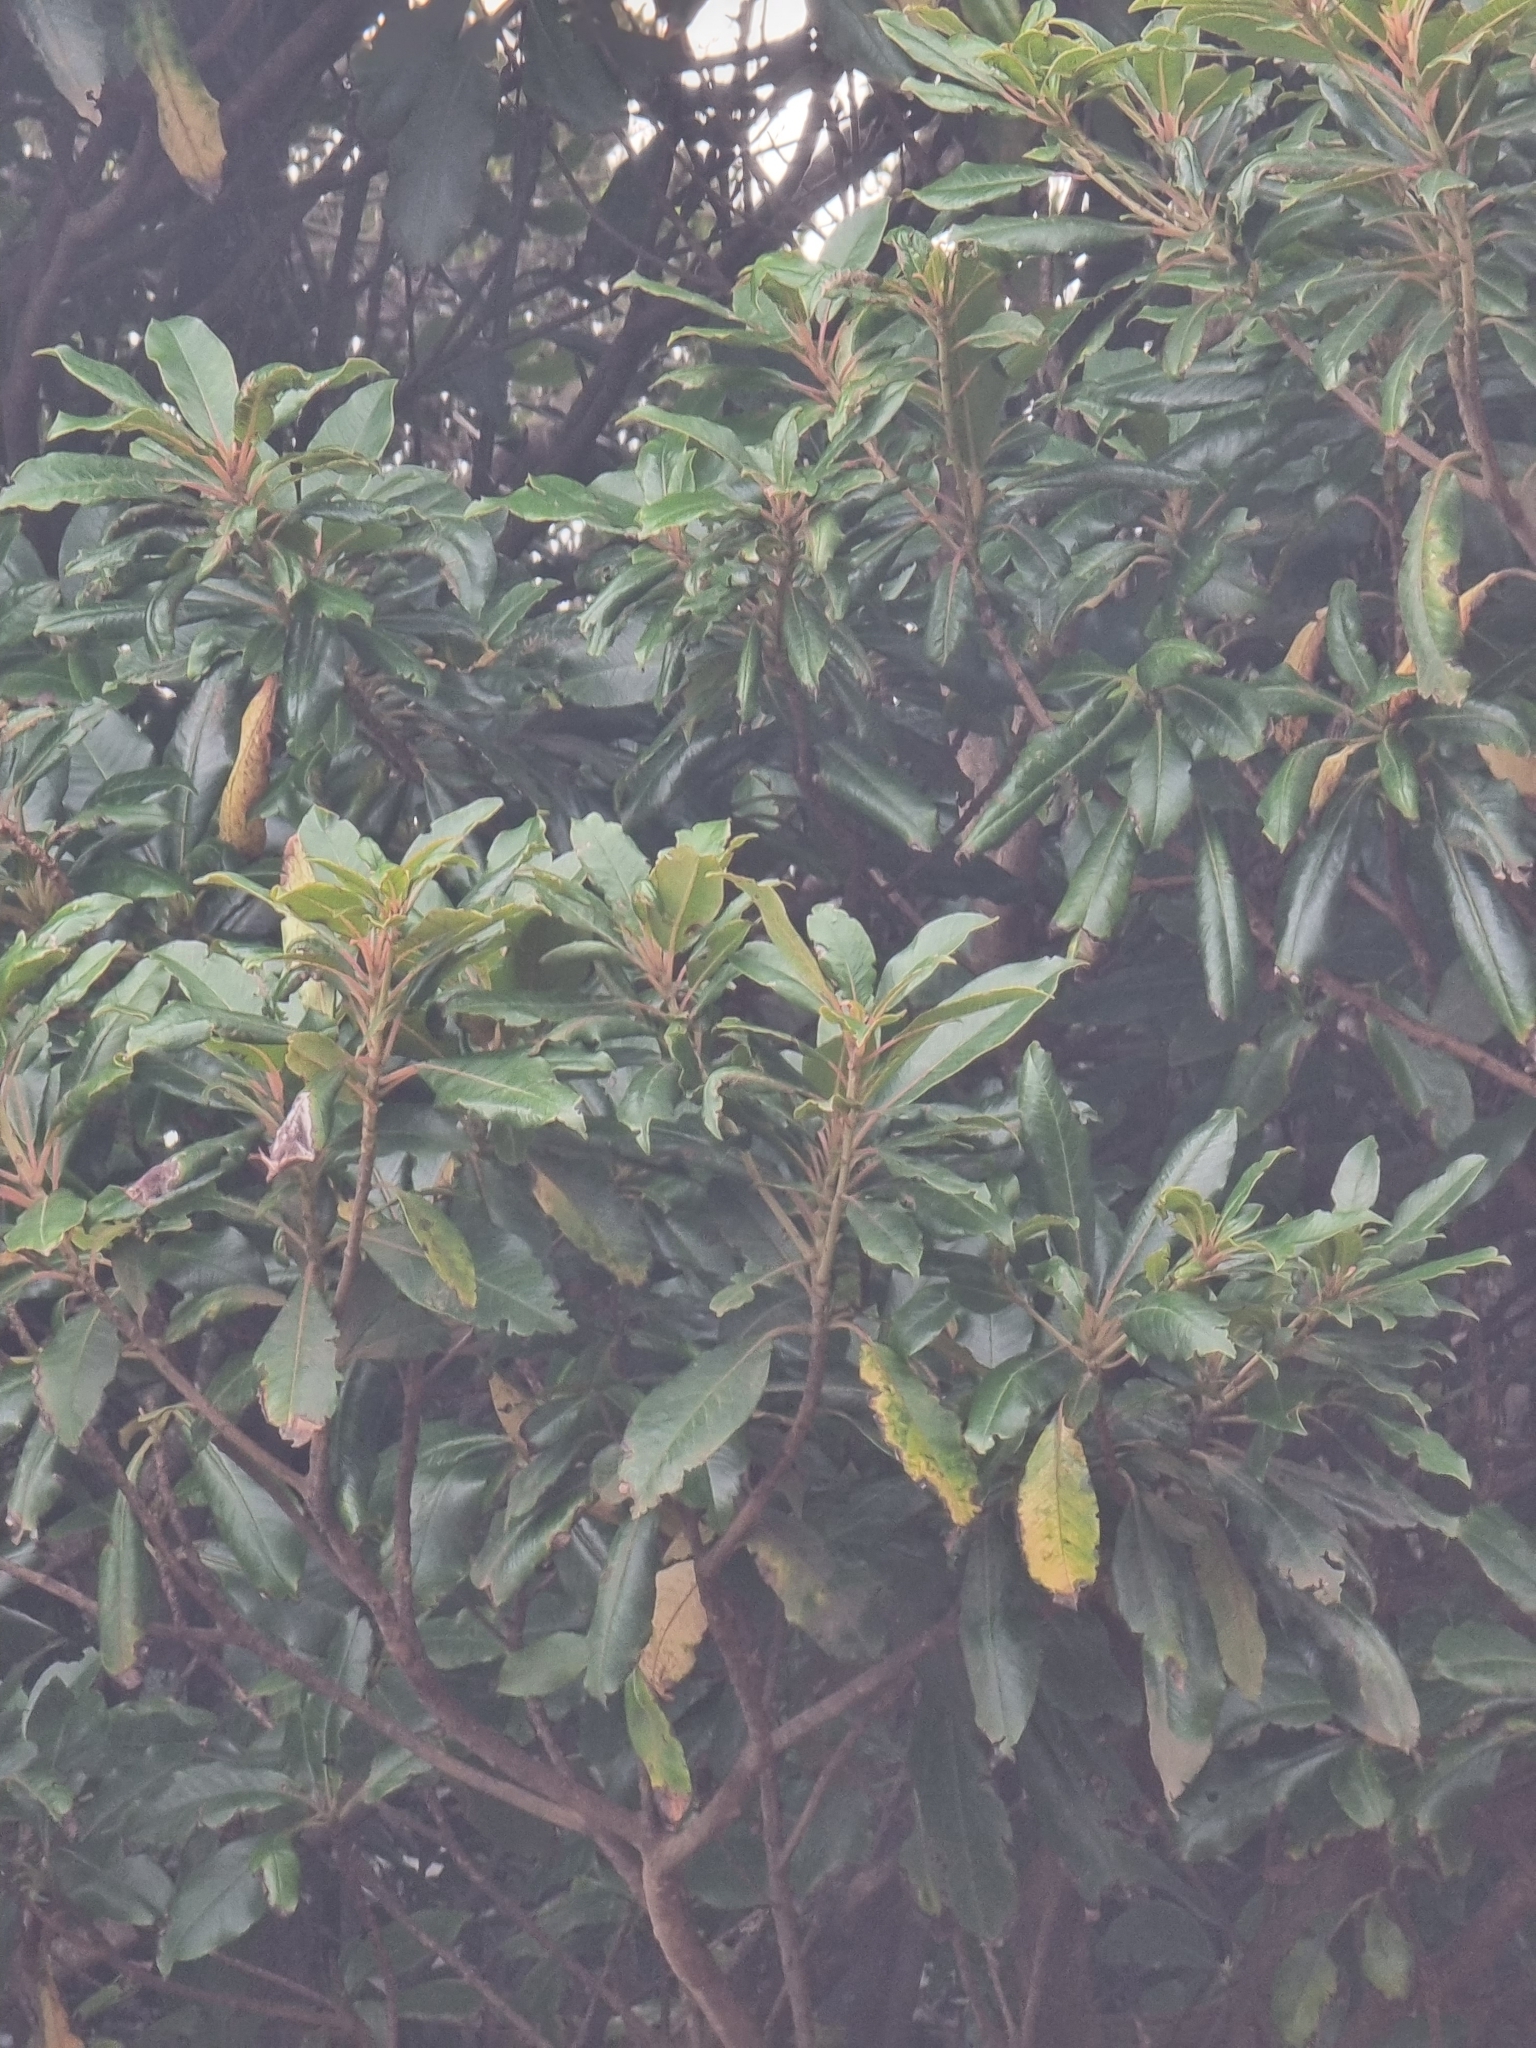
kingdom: Plantae
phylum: Tracheophyta
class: Magnoliopsida
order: Laurales
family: Lauraceae
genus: Mespilodaphne
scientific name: Mespilodaphne foetens
